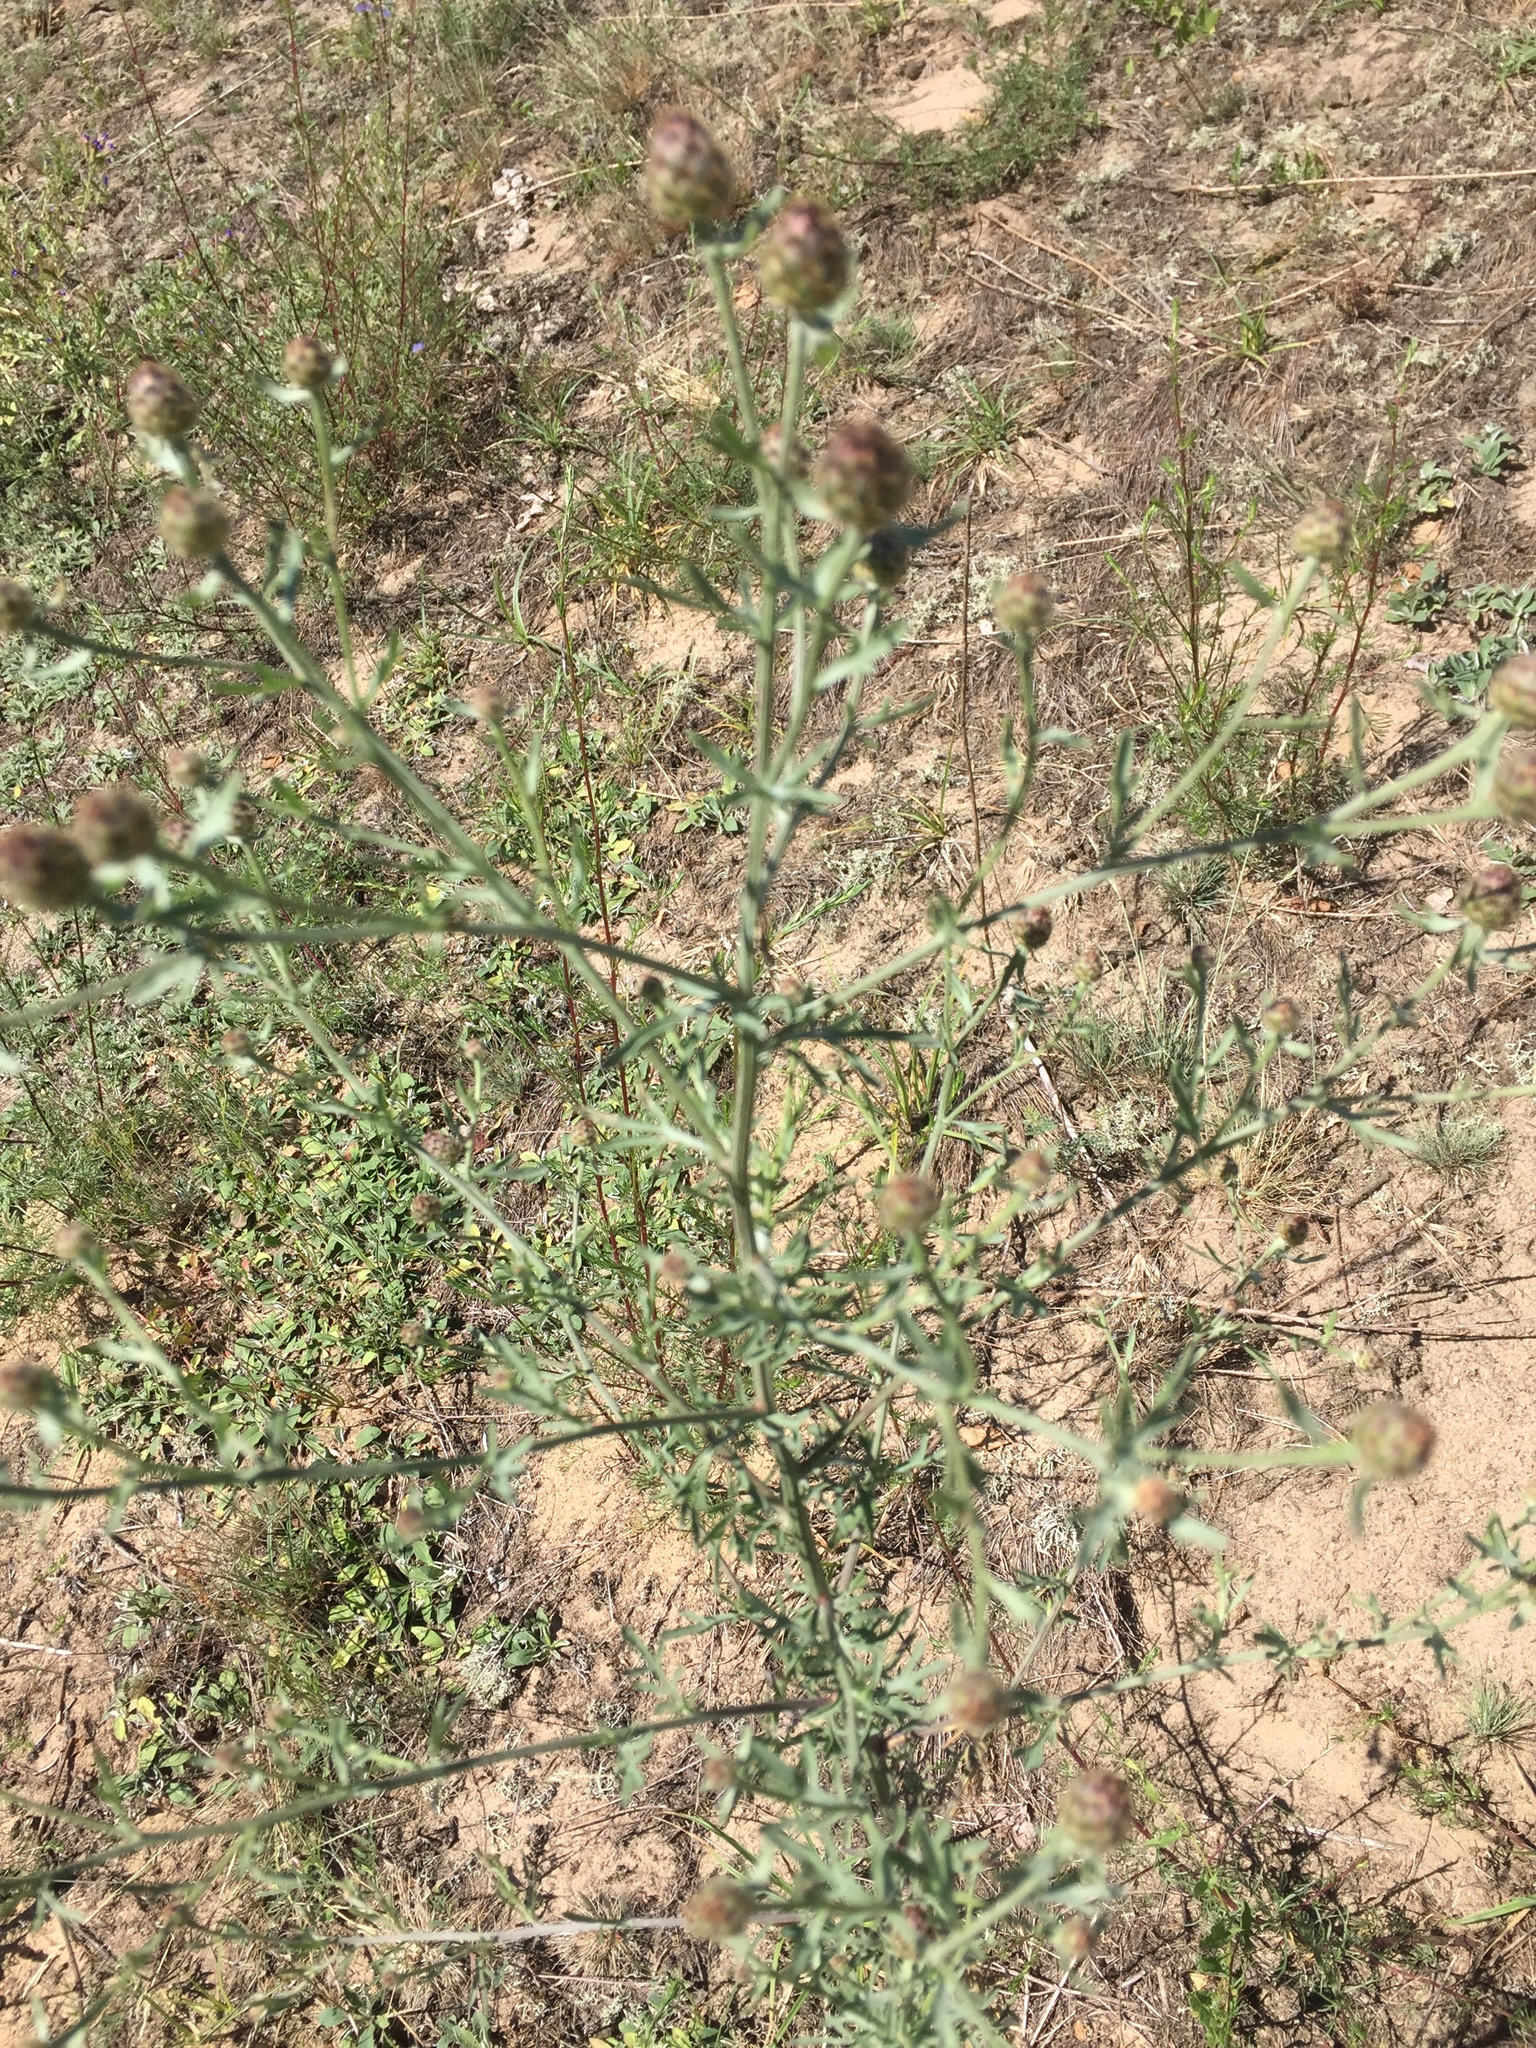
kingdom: Plantae
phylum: Tracheophyta
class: Magnoliopsida
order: Asterales
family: Asteraceae
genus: Centaurea
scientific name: Centaurea stoebe
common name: Spotted knapweed
